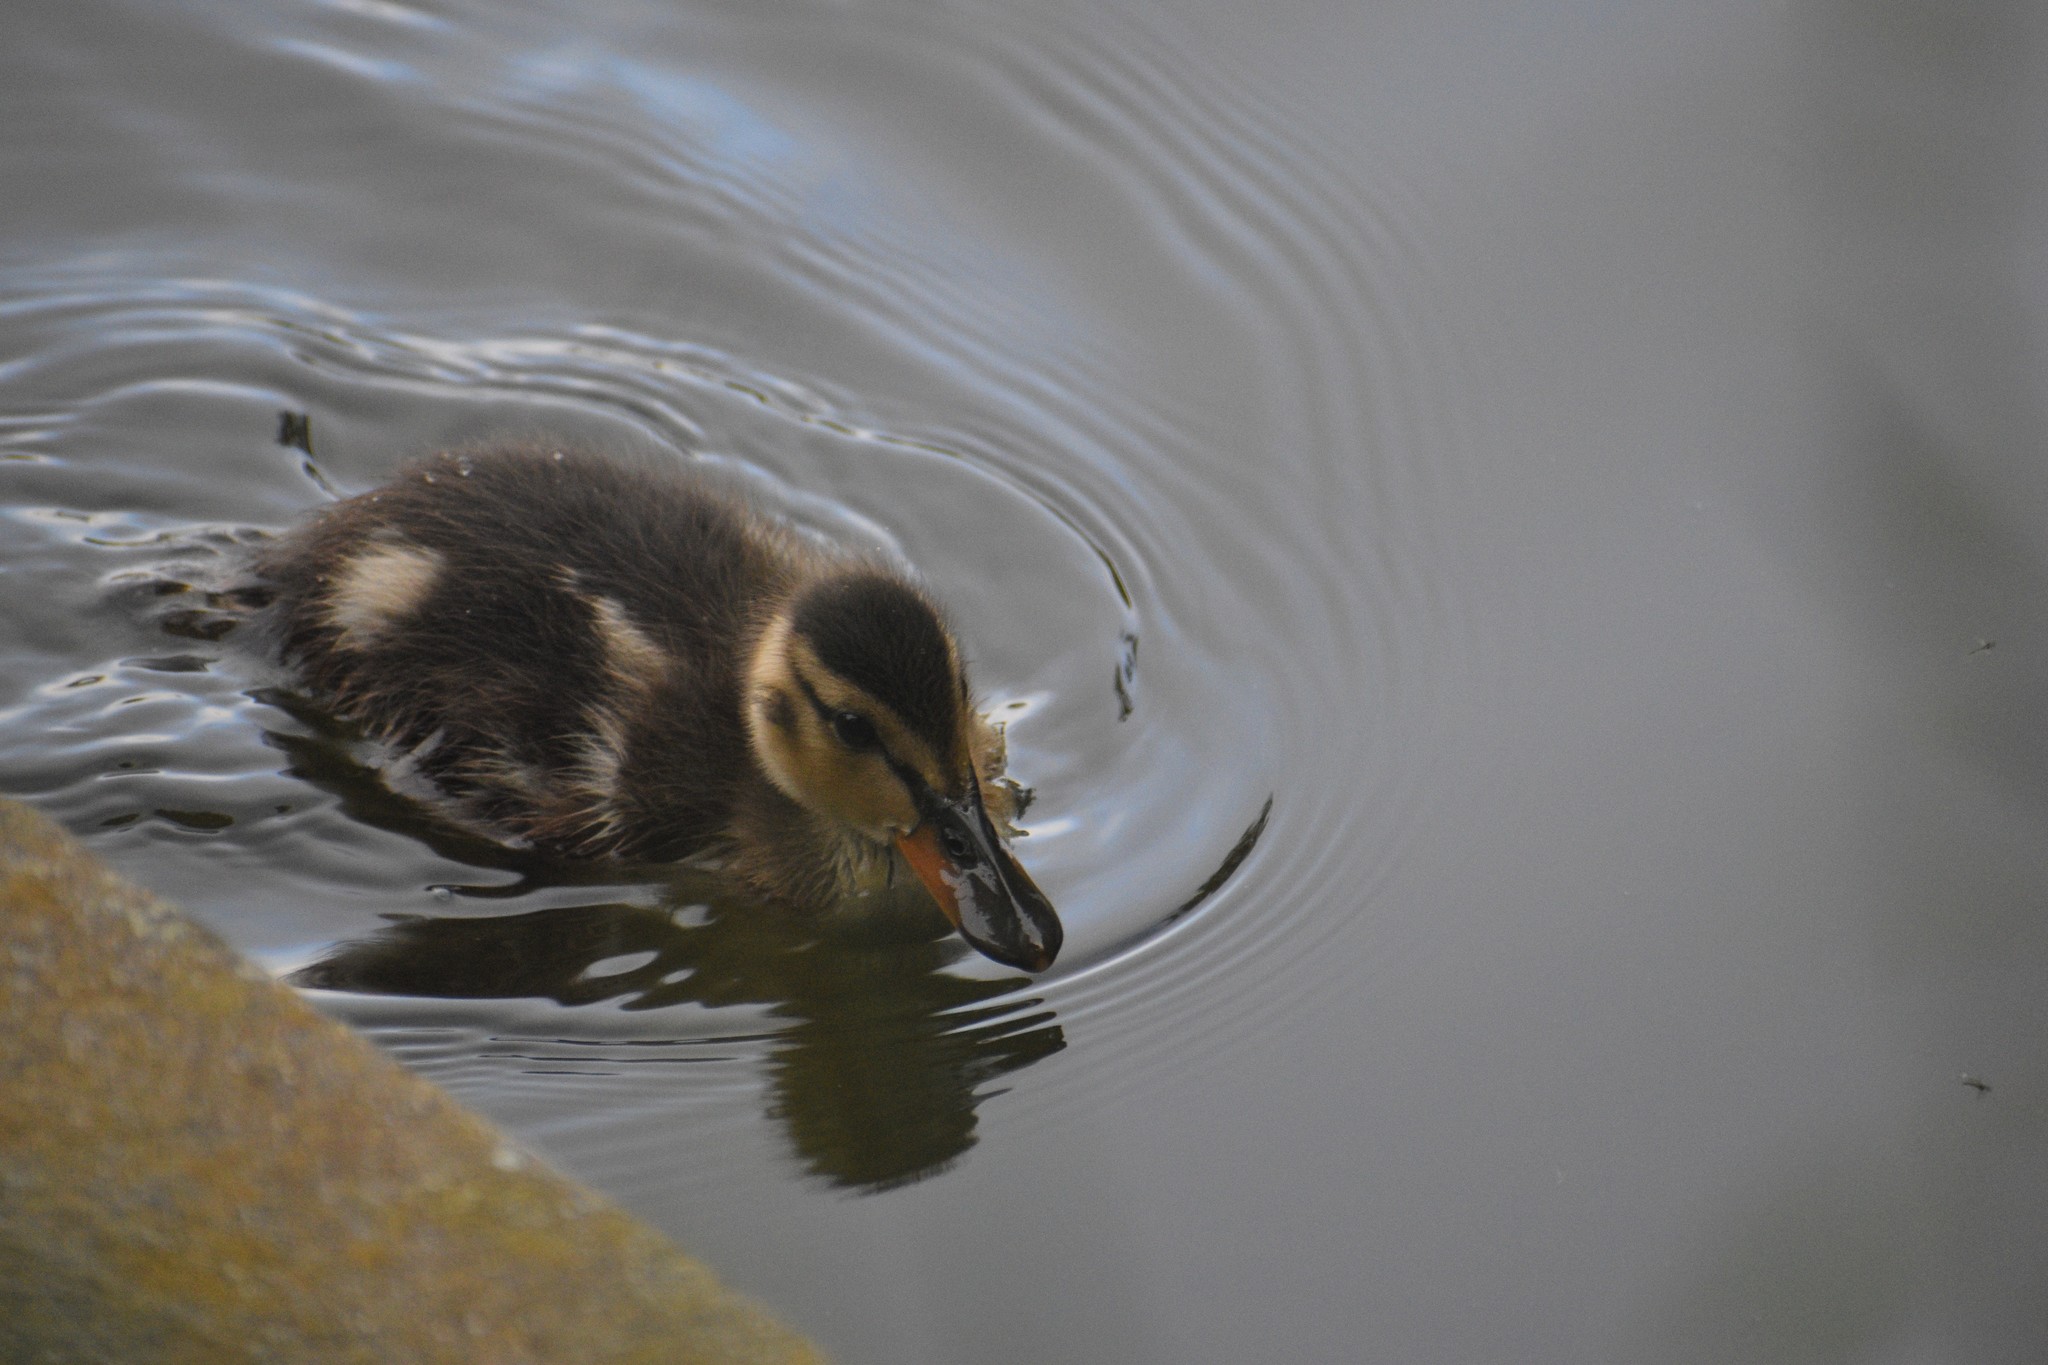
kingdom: Animalia
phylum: Chordata
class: Aves
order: Anseriformes
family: Anatidae
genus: Anas
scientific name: Anas platyrhynchos
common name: Mallard
